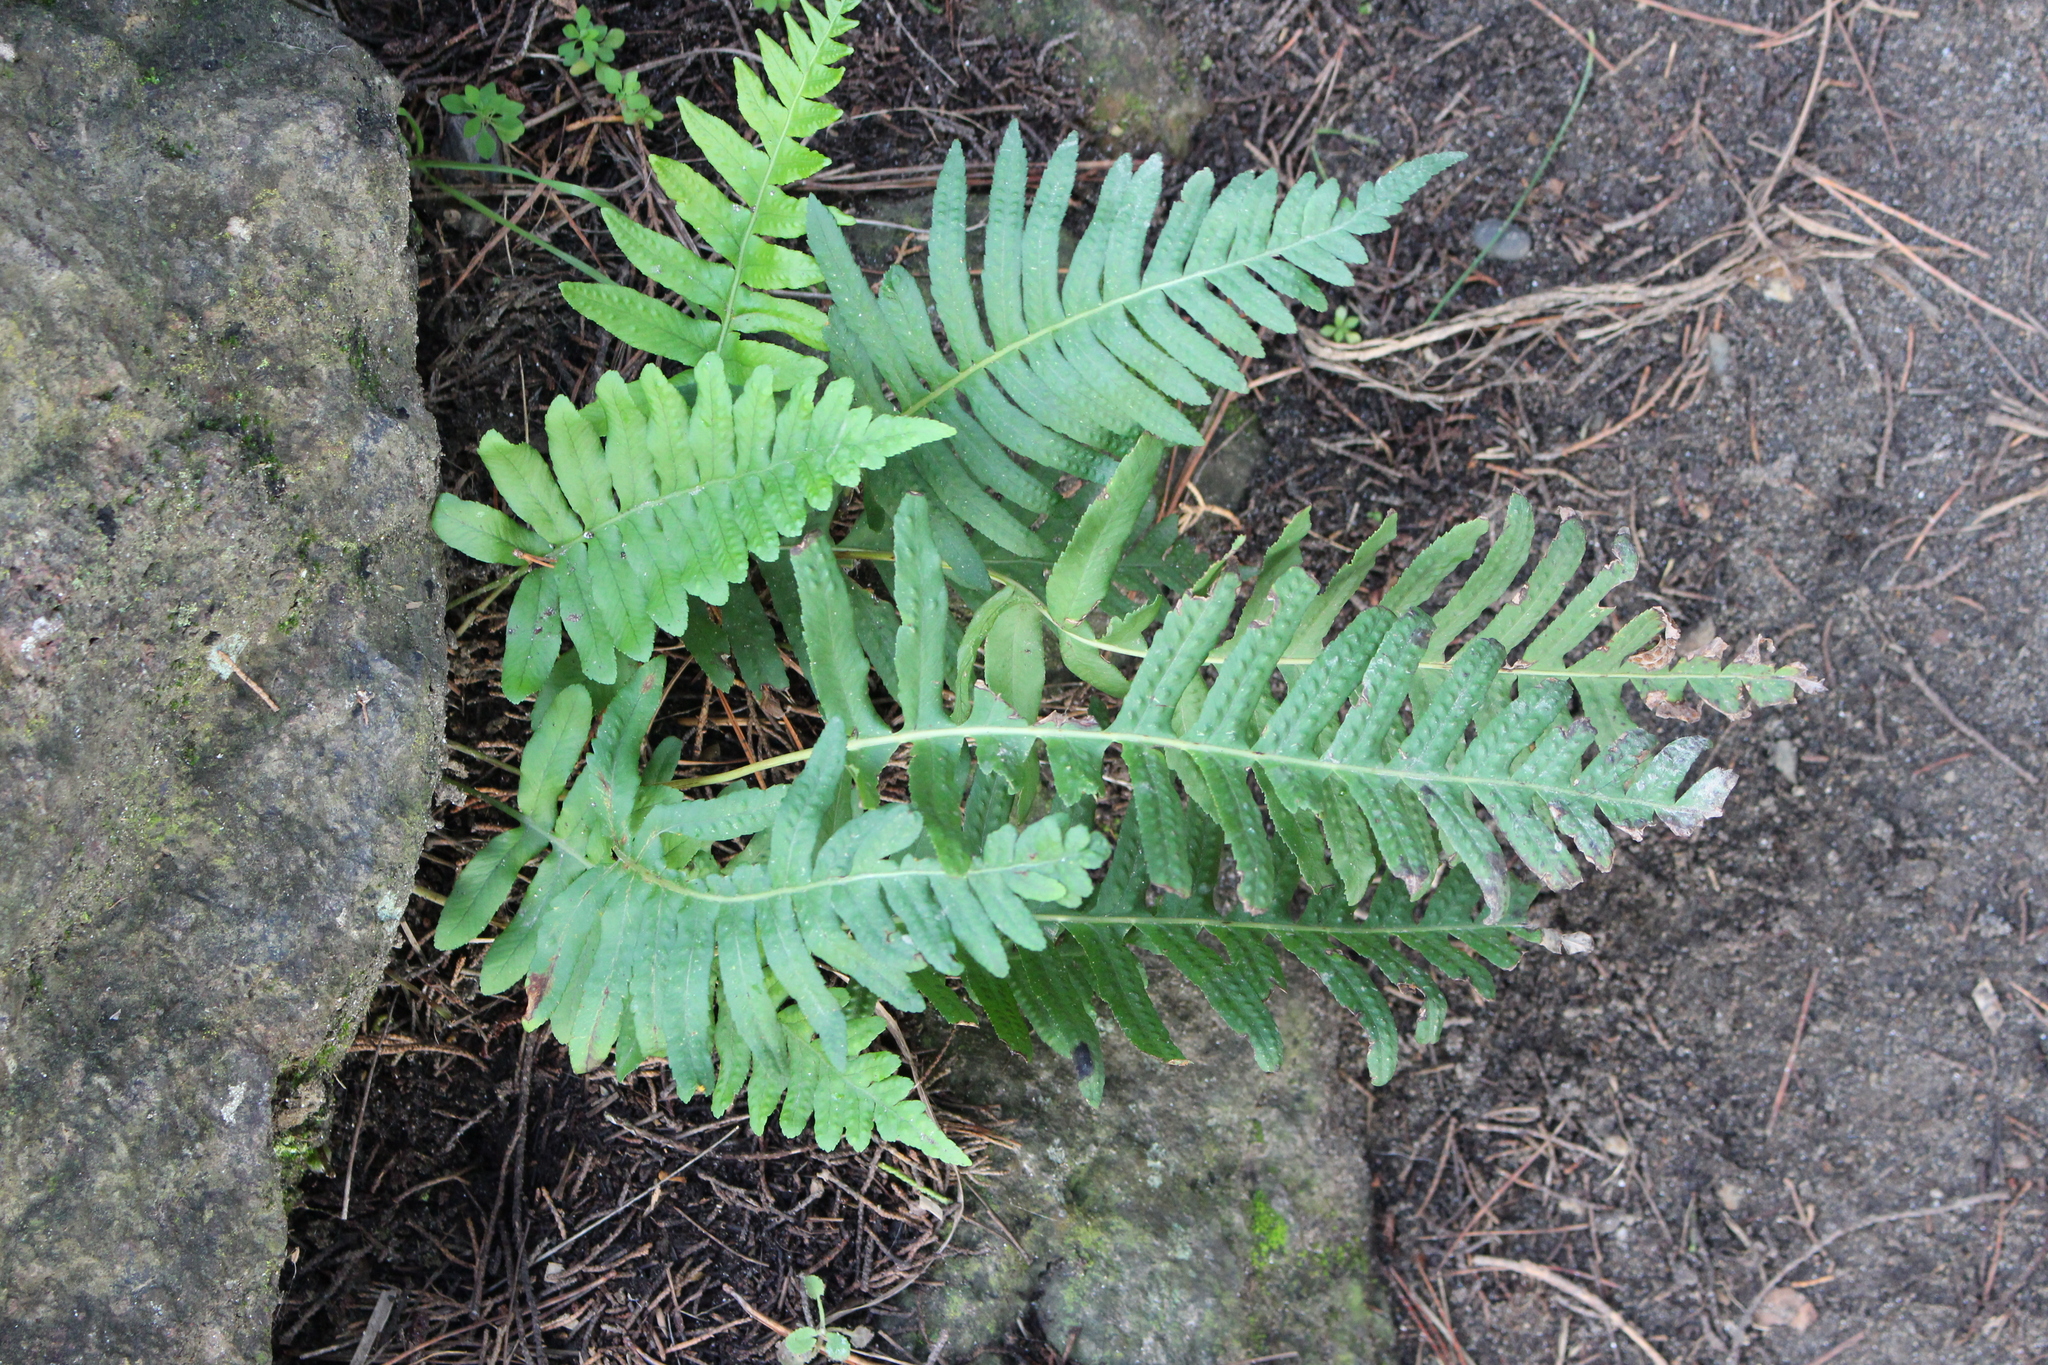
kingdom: Plantae
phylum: Tracheophyta
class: Polypodiopsida
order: Polypodiales
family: Polypodiaceae
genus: Polypodium
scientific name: Polypodium vulgare
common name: Common polypody
